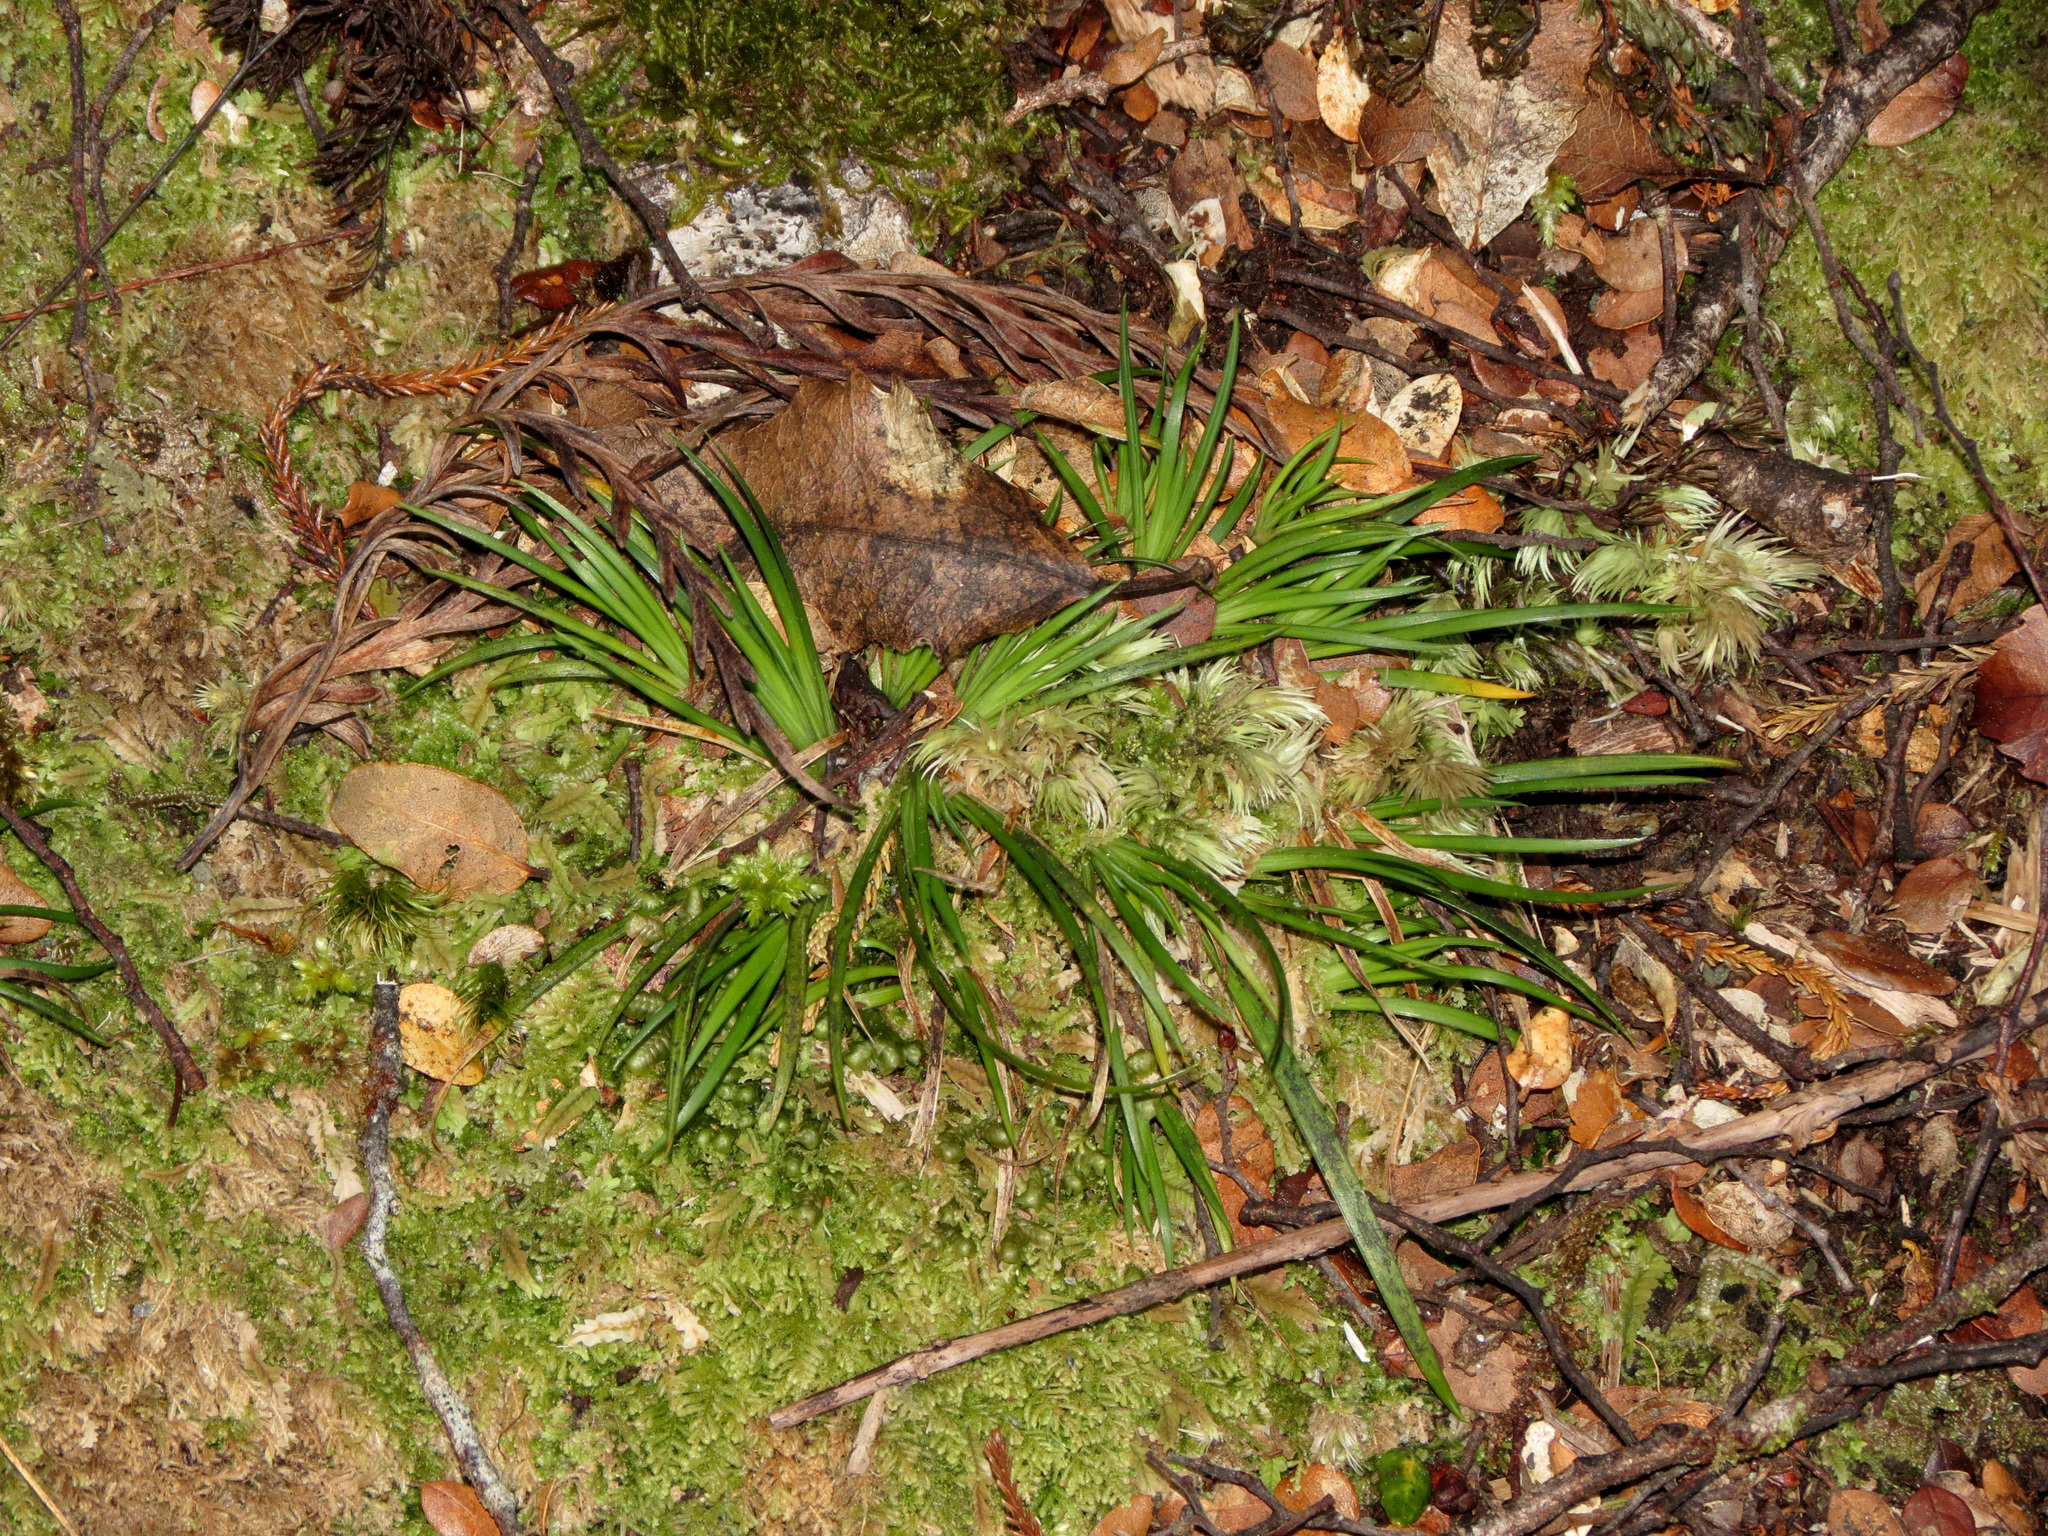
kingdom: Plantae
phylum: Tracheophyta
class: Liliopsida
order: Asparagales
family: Iridaceae
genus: Libertia
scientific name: Libertia micrantha
